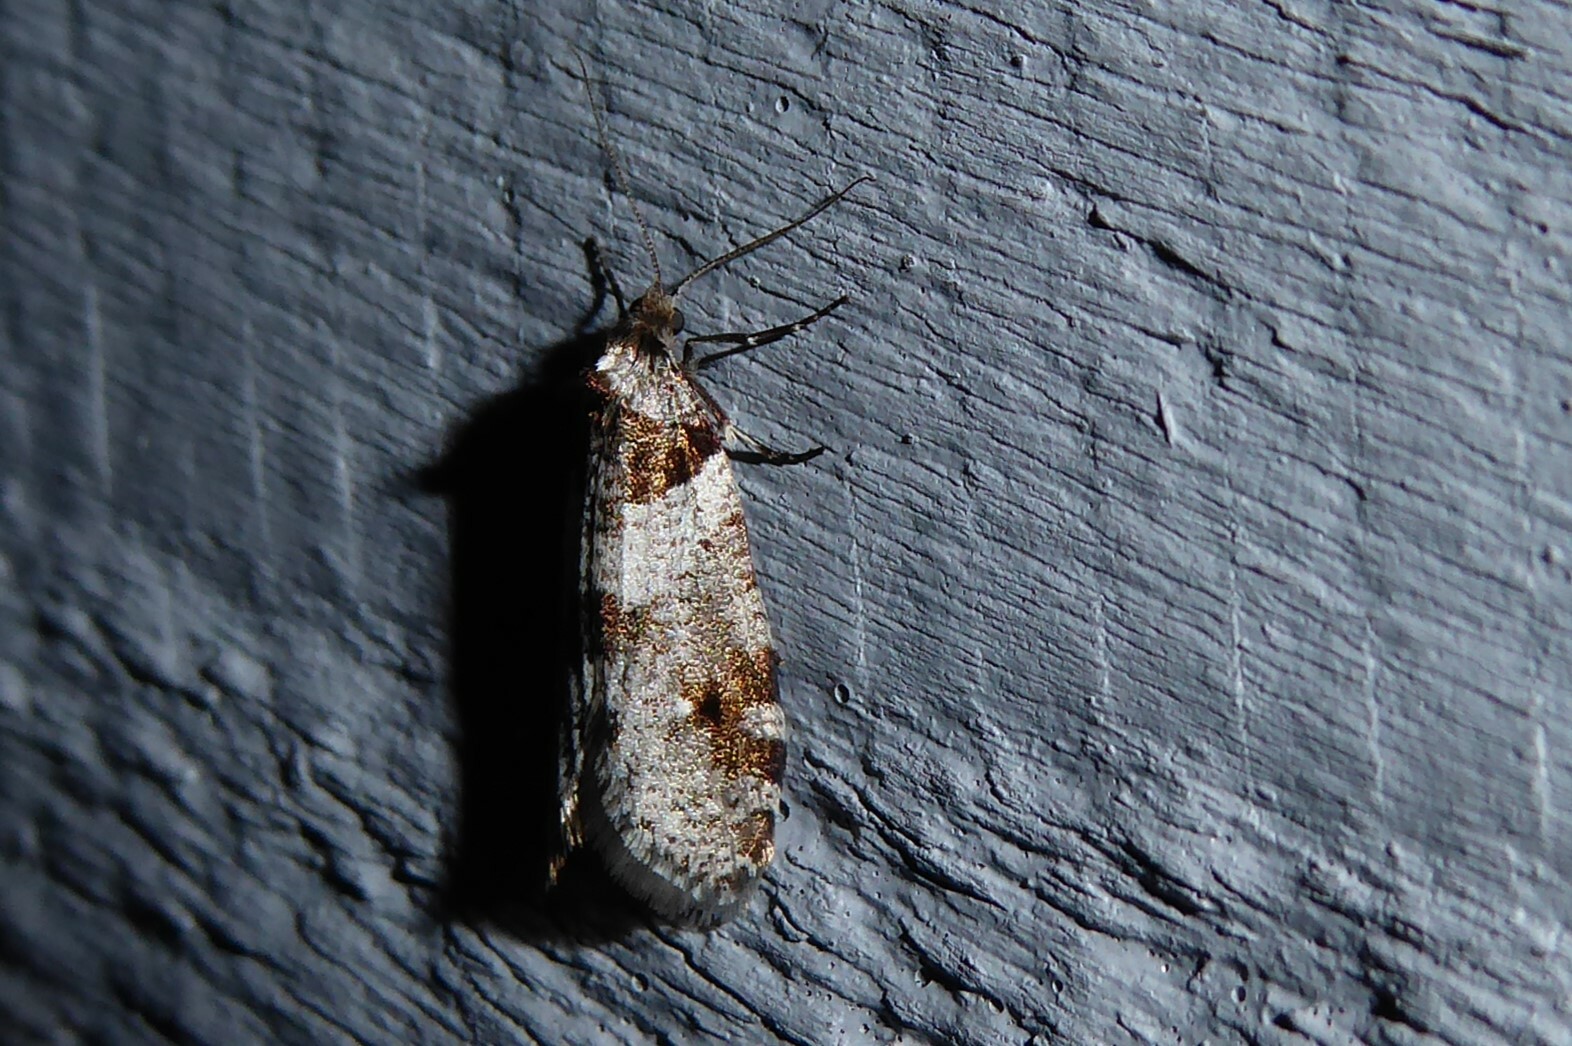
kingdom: Animalia
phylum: Arthropoda
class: Insecta
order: Lepidoptera
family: Psychidae
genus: Lepidoscia
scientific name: Lepidoscia heliochares
